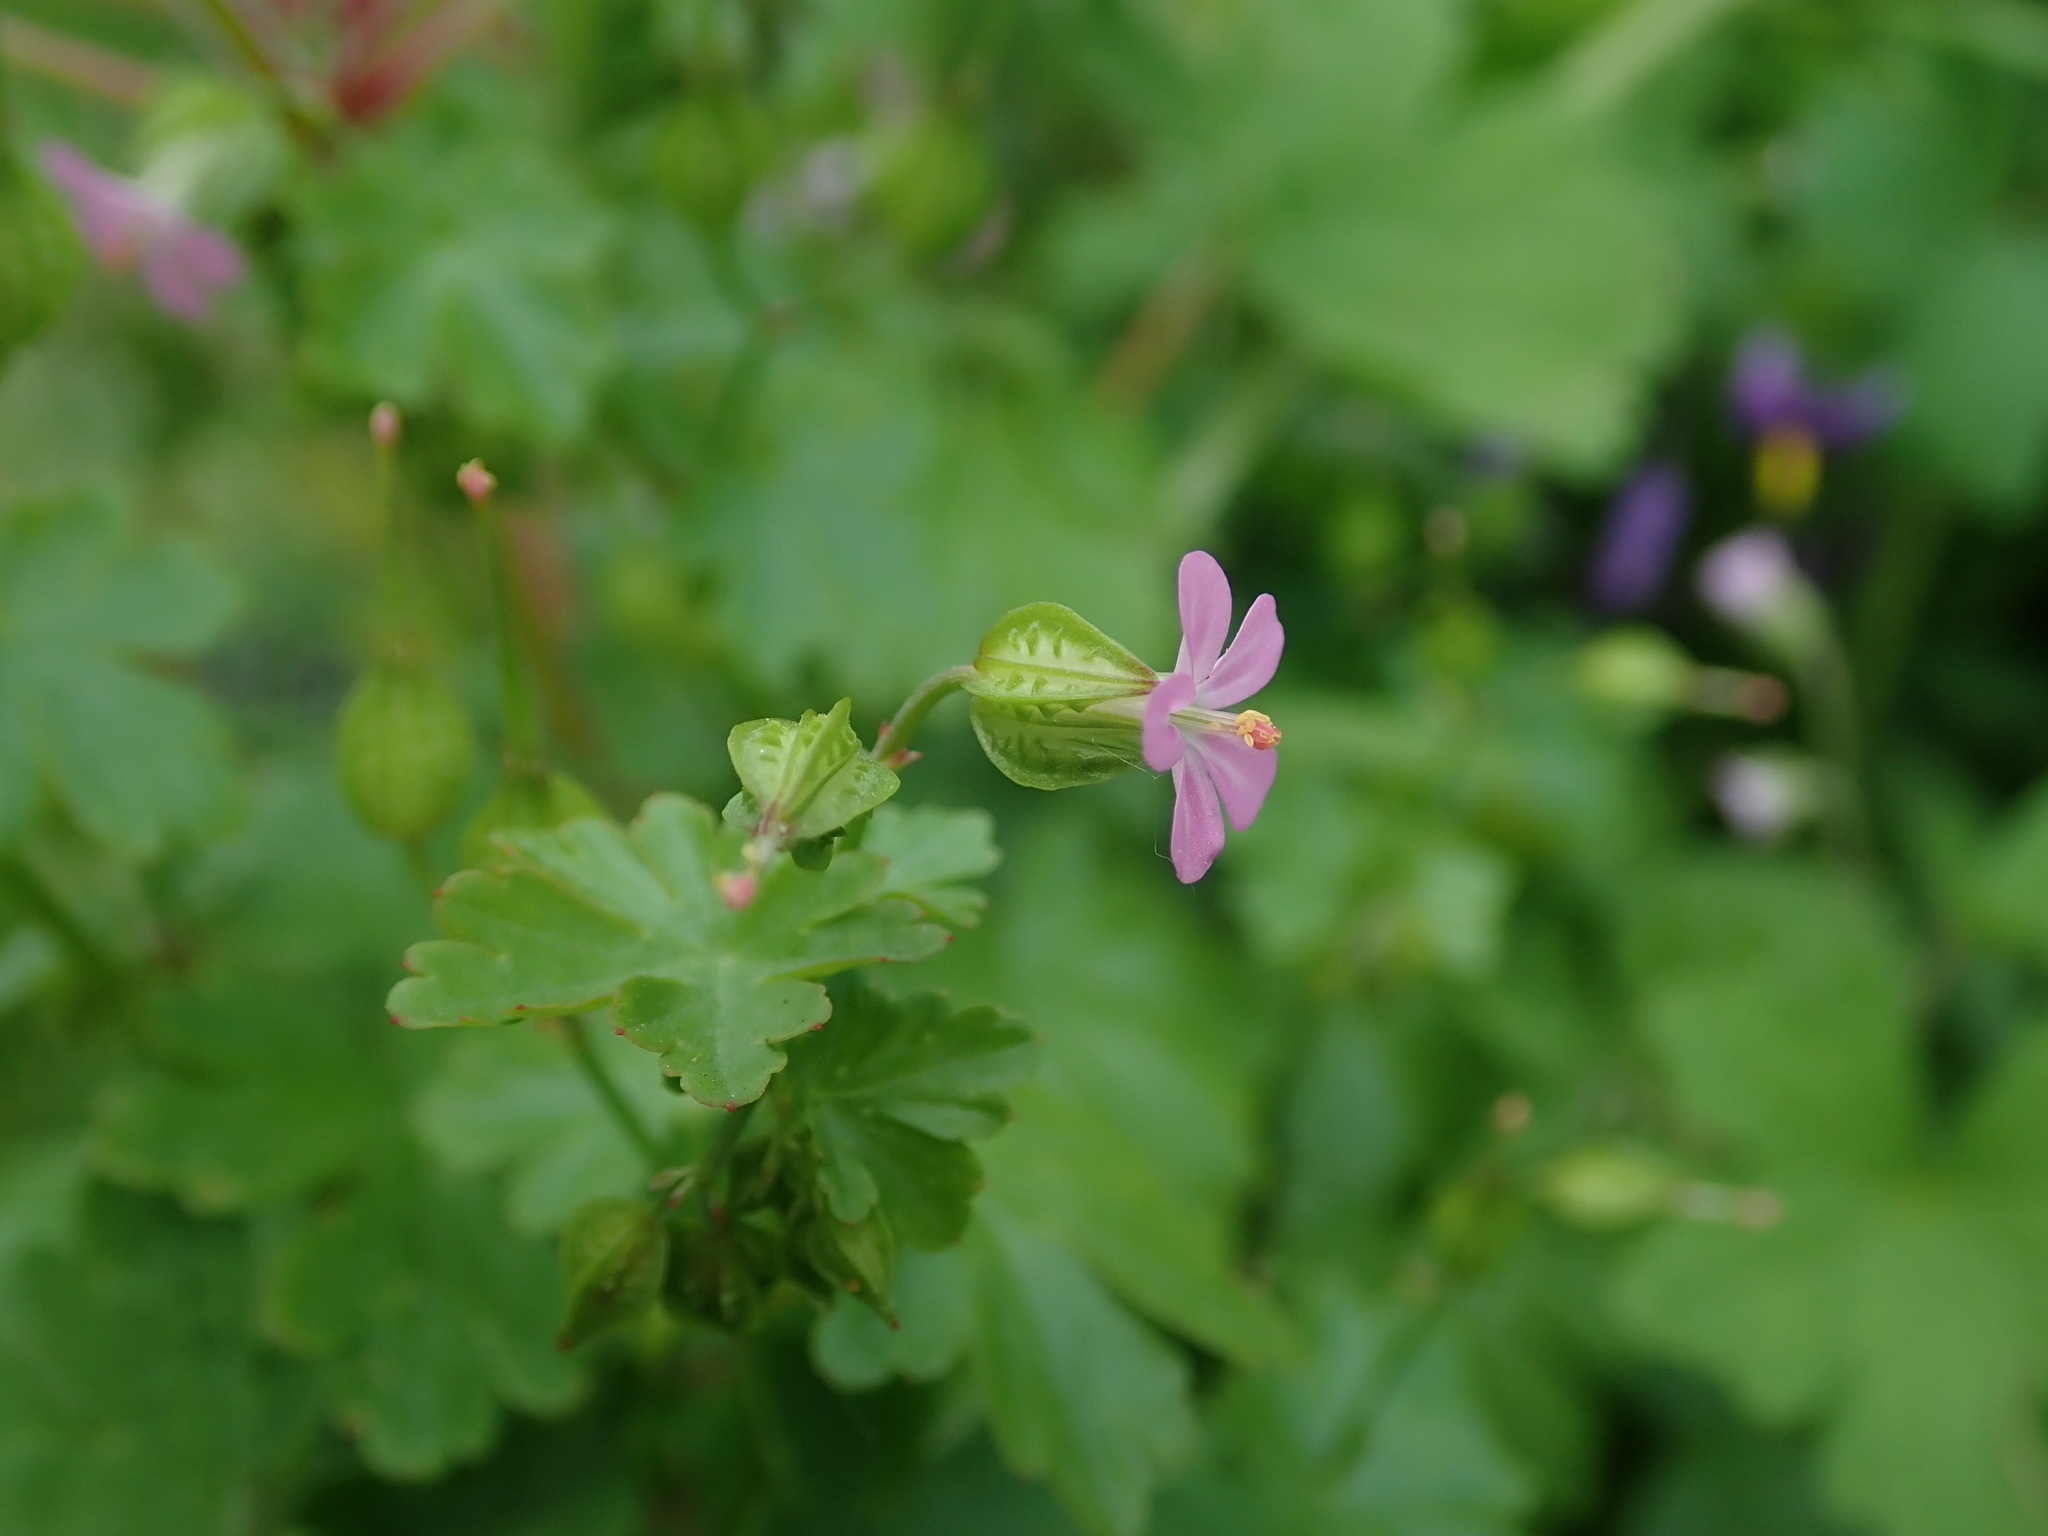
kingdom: Plantae
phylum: Tracheophyta
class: Magnoliopsida
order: Geraniales
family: Geraniaceae
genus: Geranium
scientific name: Geranium lucidum
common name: Shining crane's-bill
